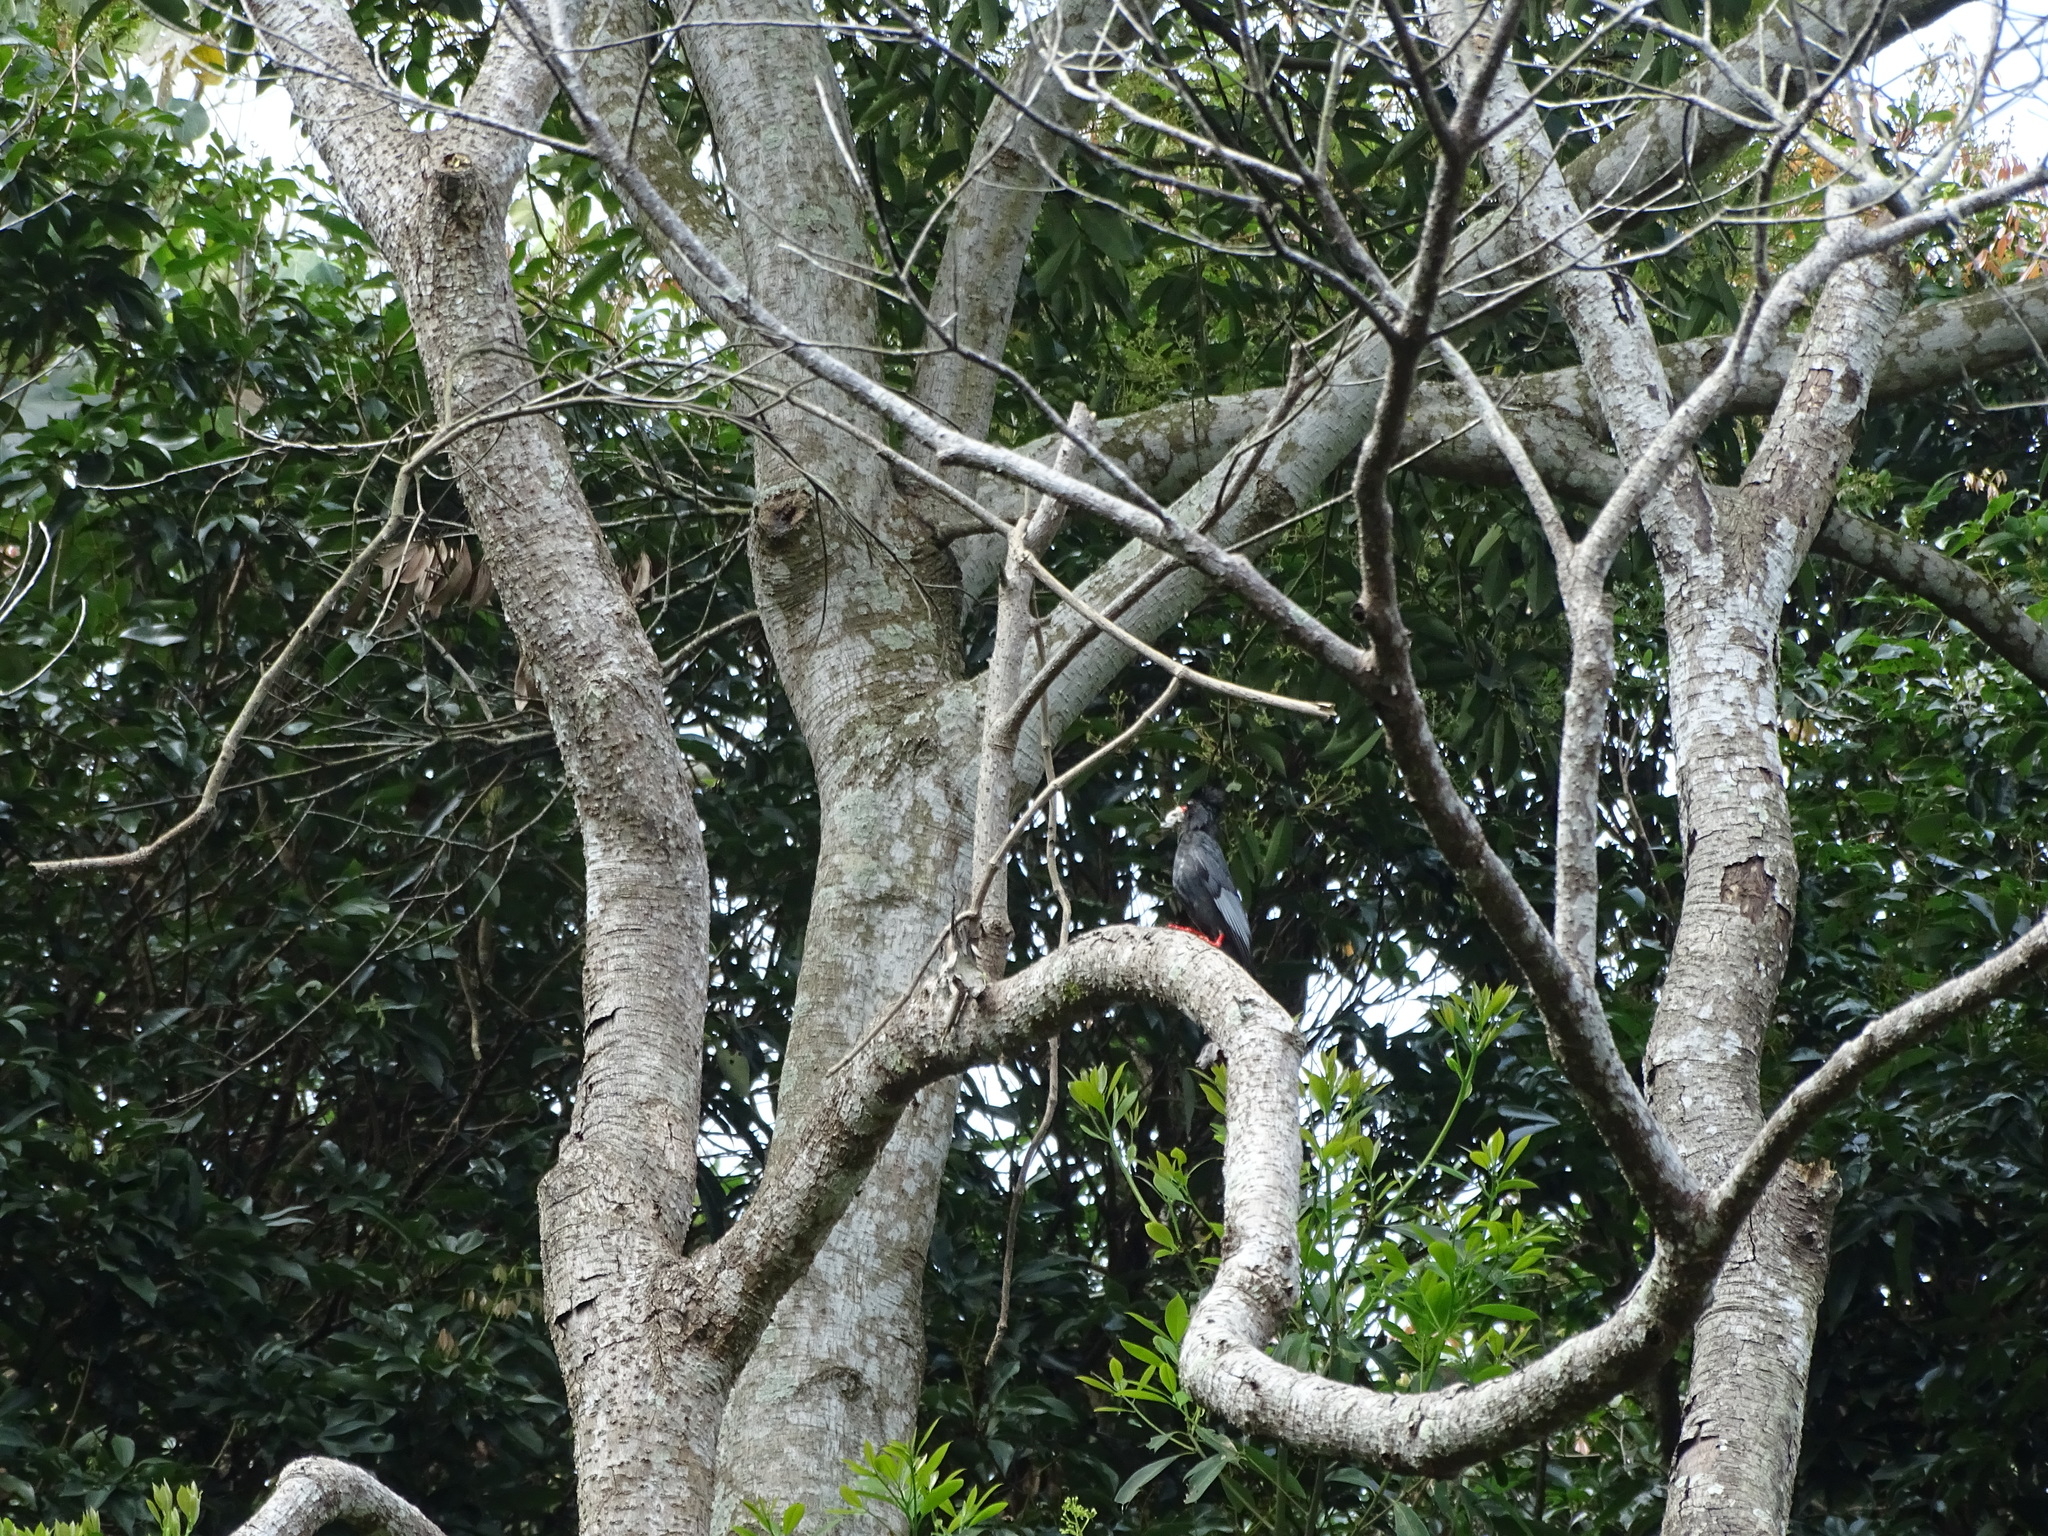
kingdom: Animalia
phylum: Chordata
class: Aves
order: Passeriformes
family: Pycnonotidae
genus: Hypsipetes
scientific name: Hypsipetes leucocephalus
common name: Black bulbul
